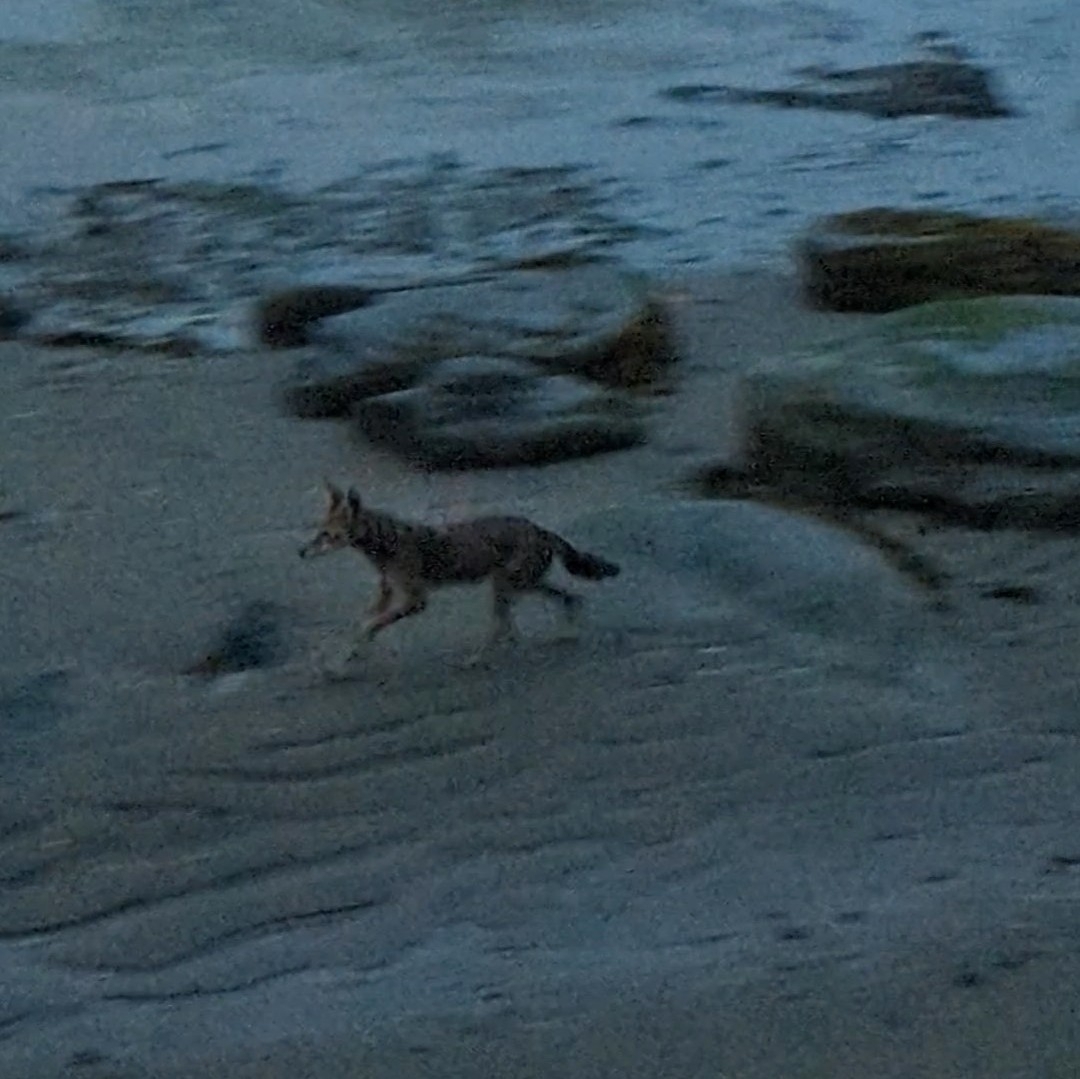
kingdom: Animalia
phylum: Chordata
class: Mammalia
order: Carnivora
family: Canidae
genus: Canis
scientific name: Canis latrans
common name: Coyote
